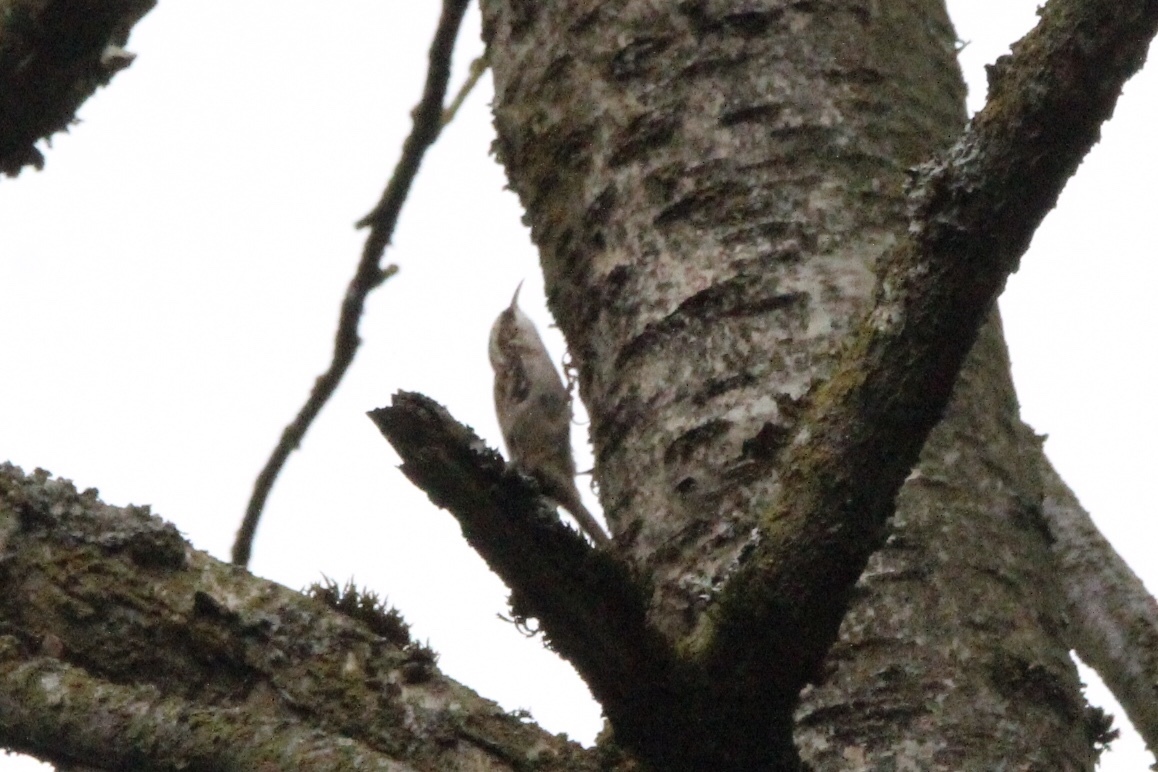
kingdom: Animalia
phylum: Chordata
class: Aves
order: Passeriformes
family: Certhiidae
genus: Certhia
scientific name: Certhia americana
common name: Brown creeper
